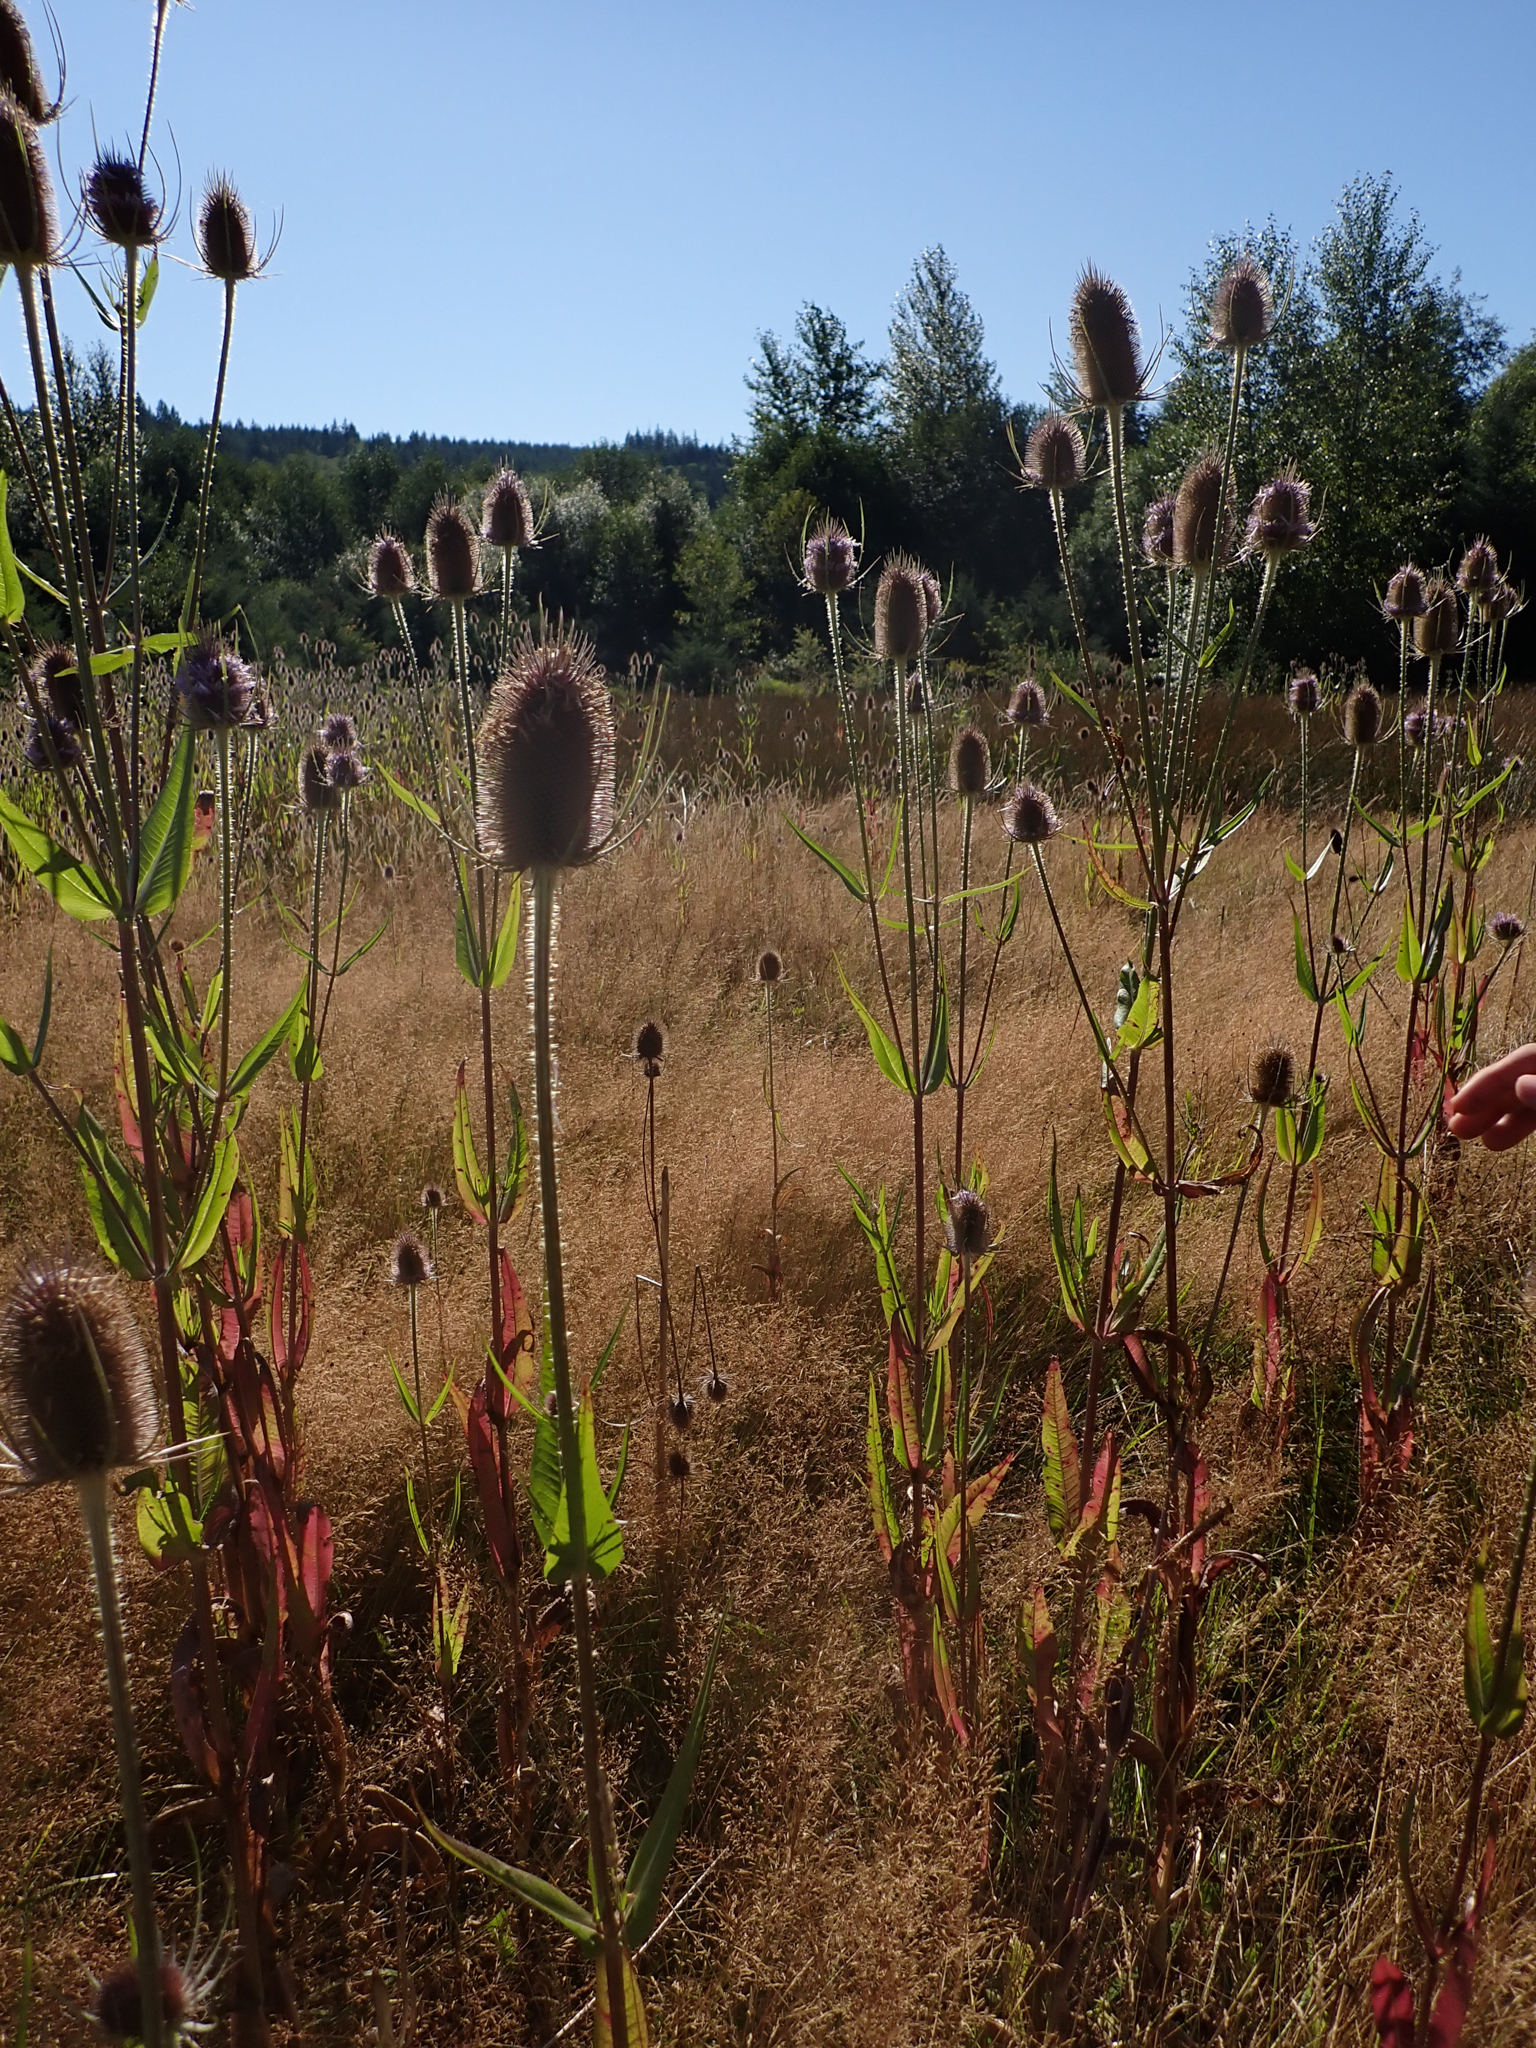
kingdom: Plantae
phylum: Tracheophyta
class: Magnoliopsida
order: Dipsacales
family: Caprifoliaceae
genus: Dipsacus
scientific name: Dipsacus fullonum
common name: Teasel
